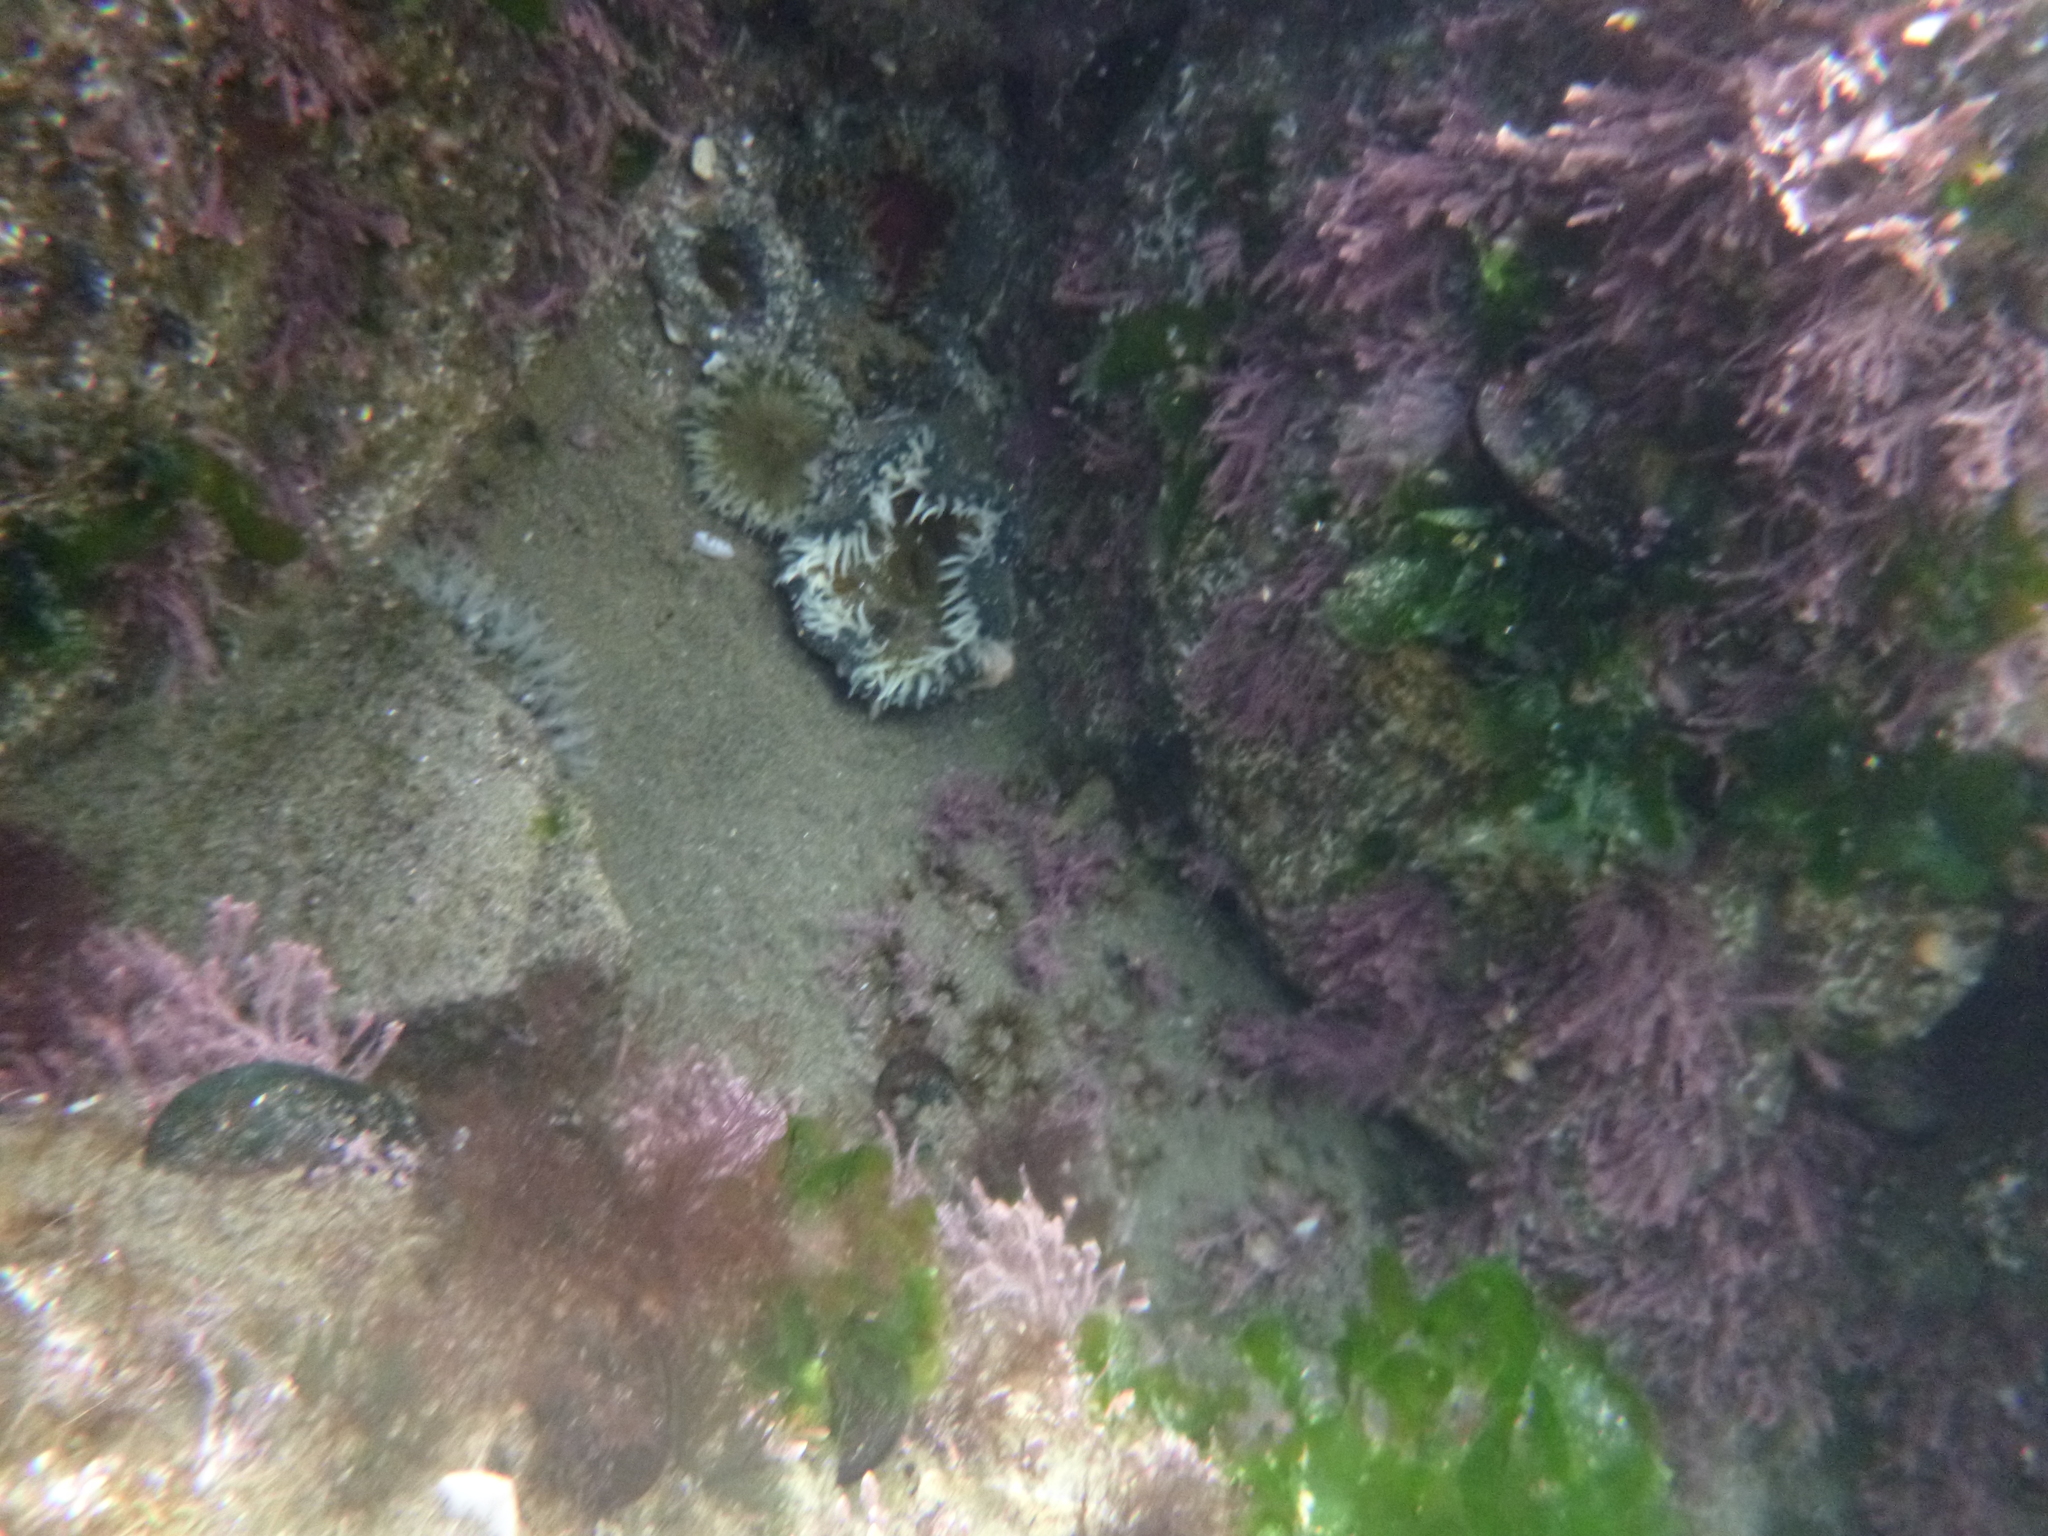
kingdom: Animalia
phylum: Cnidaria
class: Anthozoa
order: Actiniaria
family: Actiniidae
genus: Oulactis
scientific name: Oulactis magna
